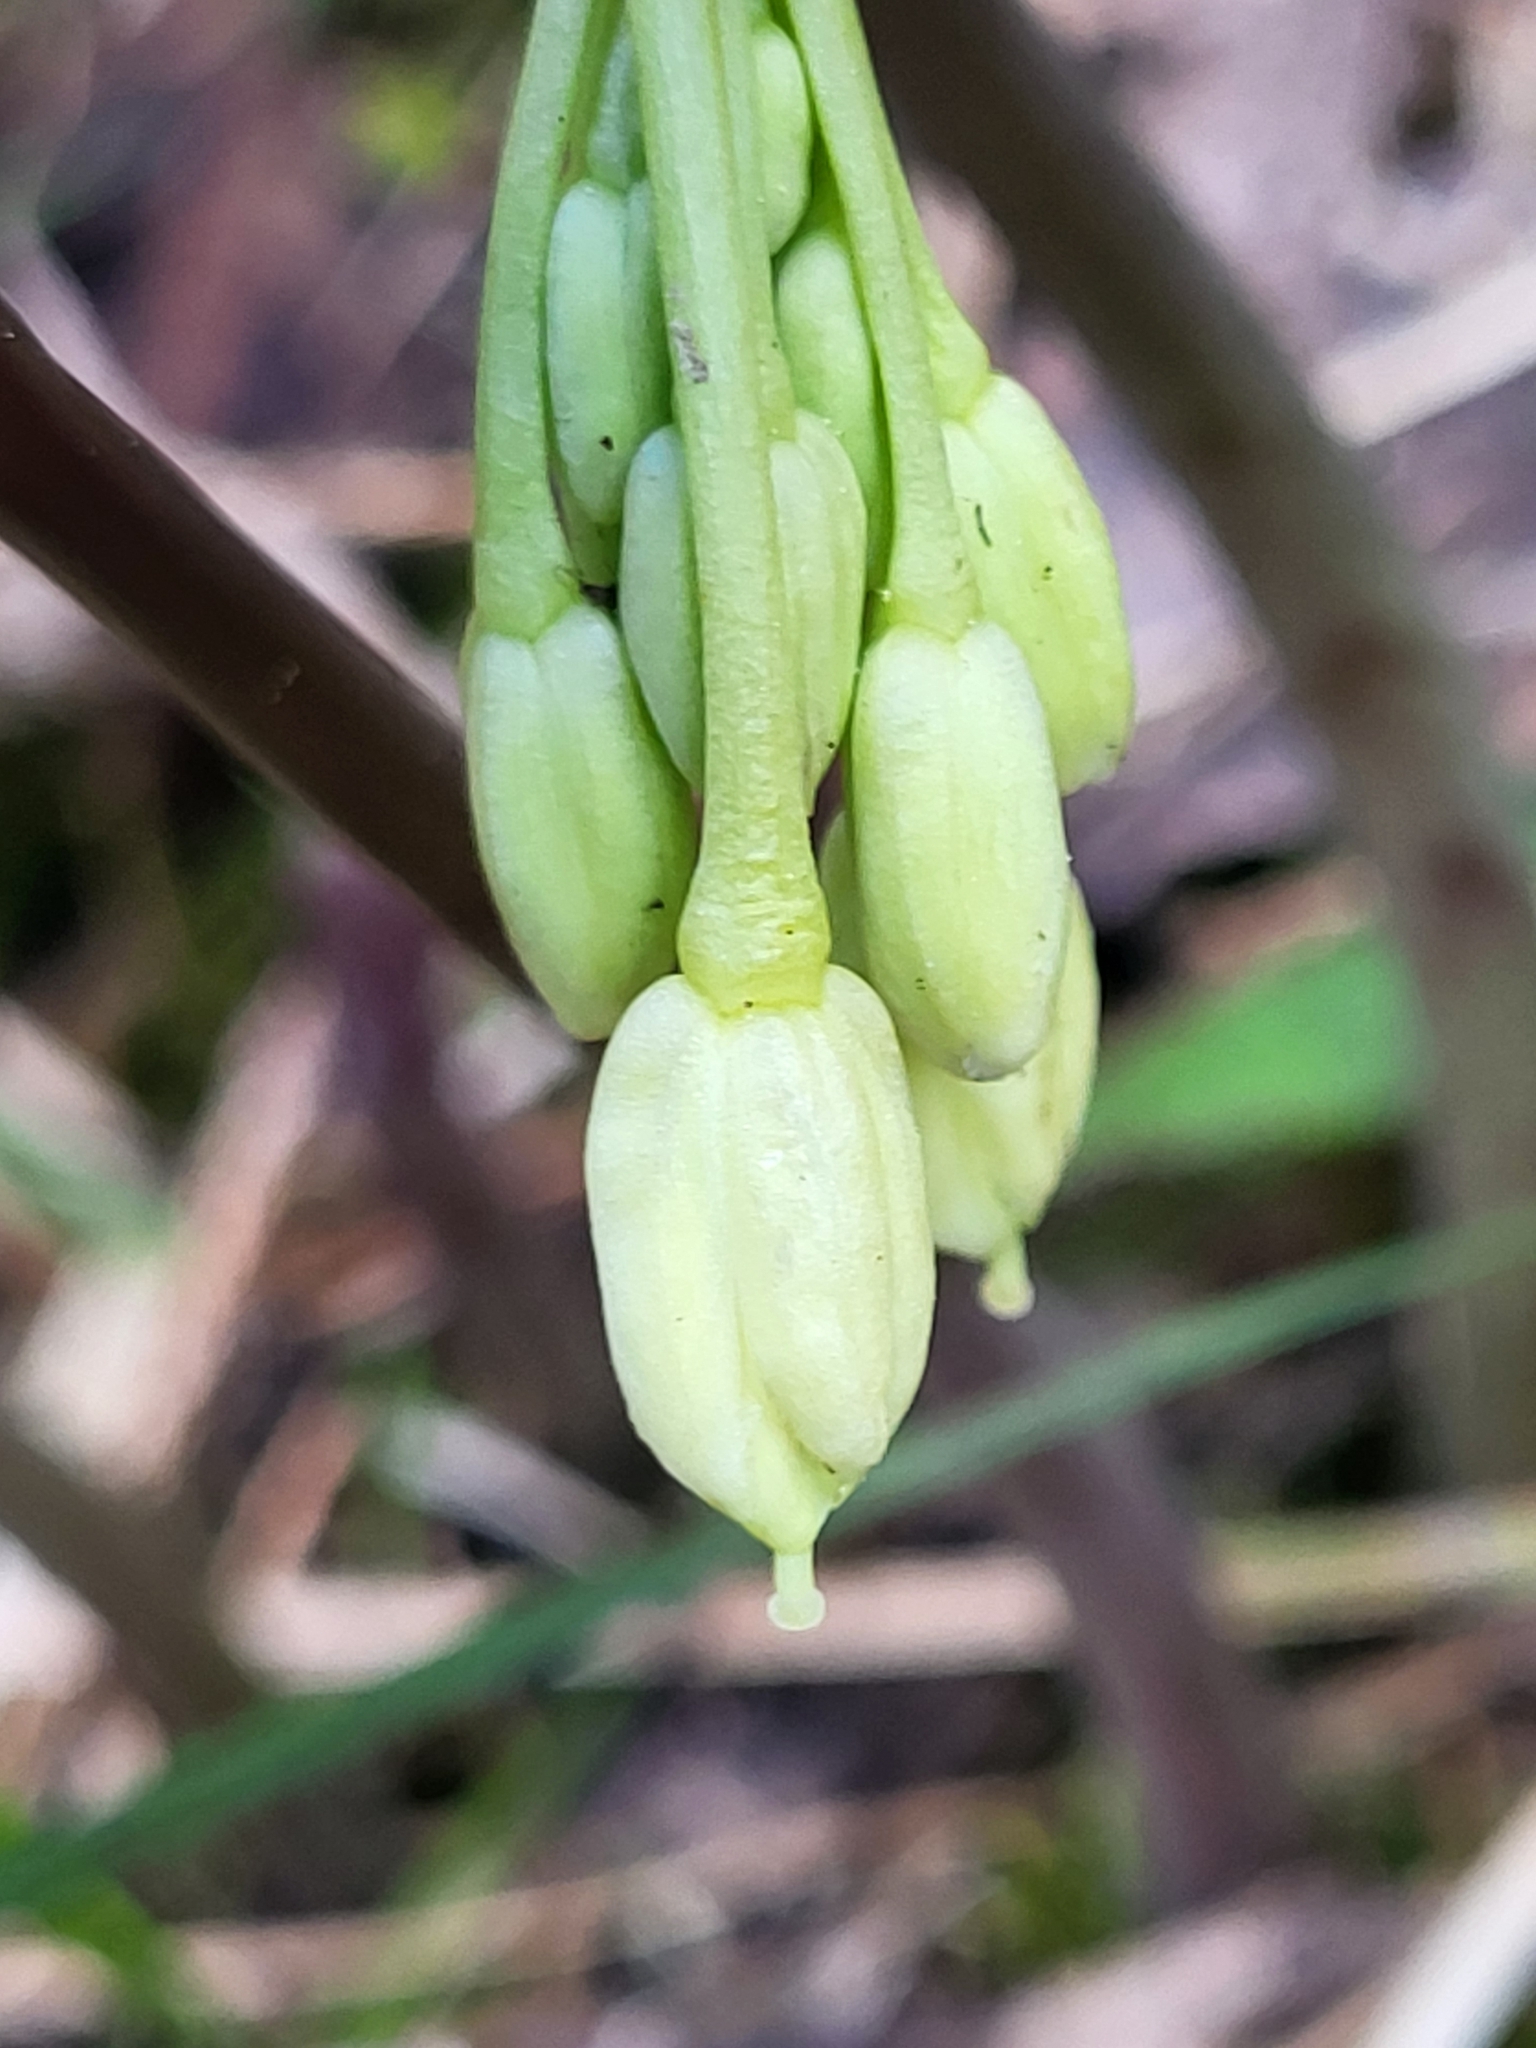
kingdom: Plantae
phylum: Tracheophyta
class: Magnoliopsida
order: Brassicales
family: Brassicaceae
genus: Cardamine
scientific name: Cardamine enneaphyllos
